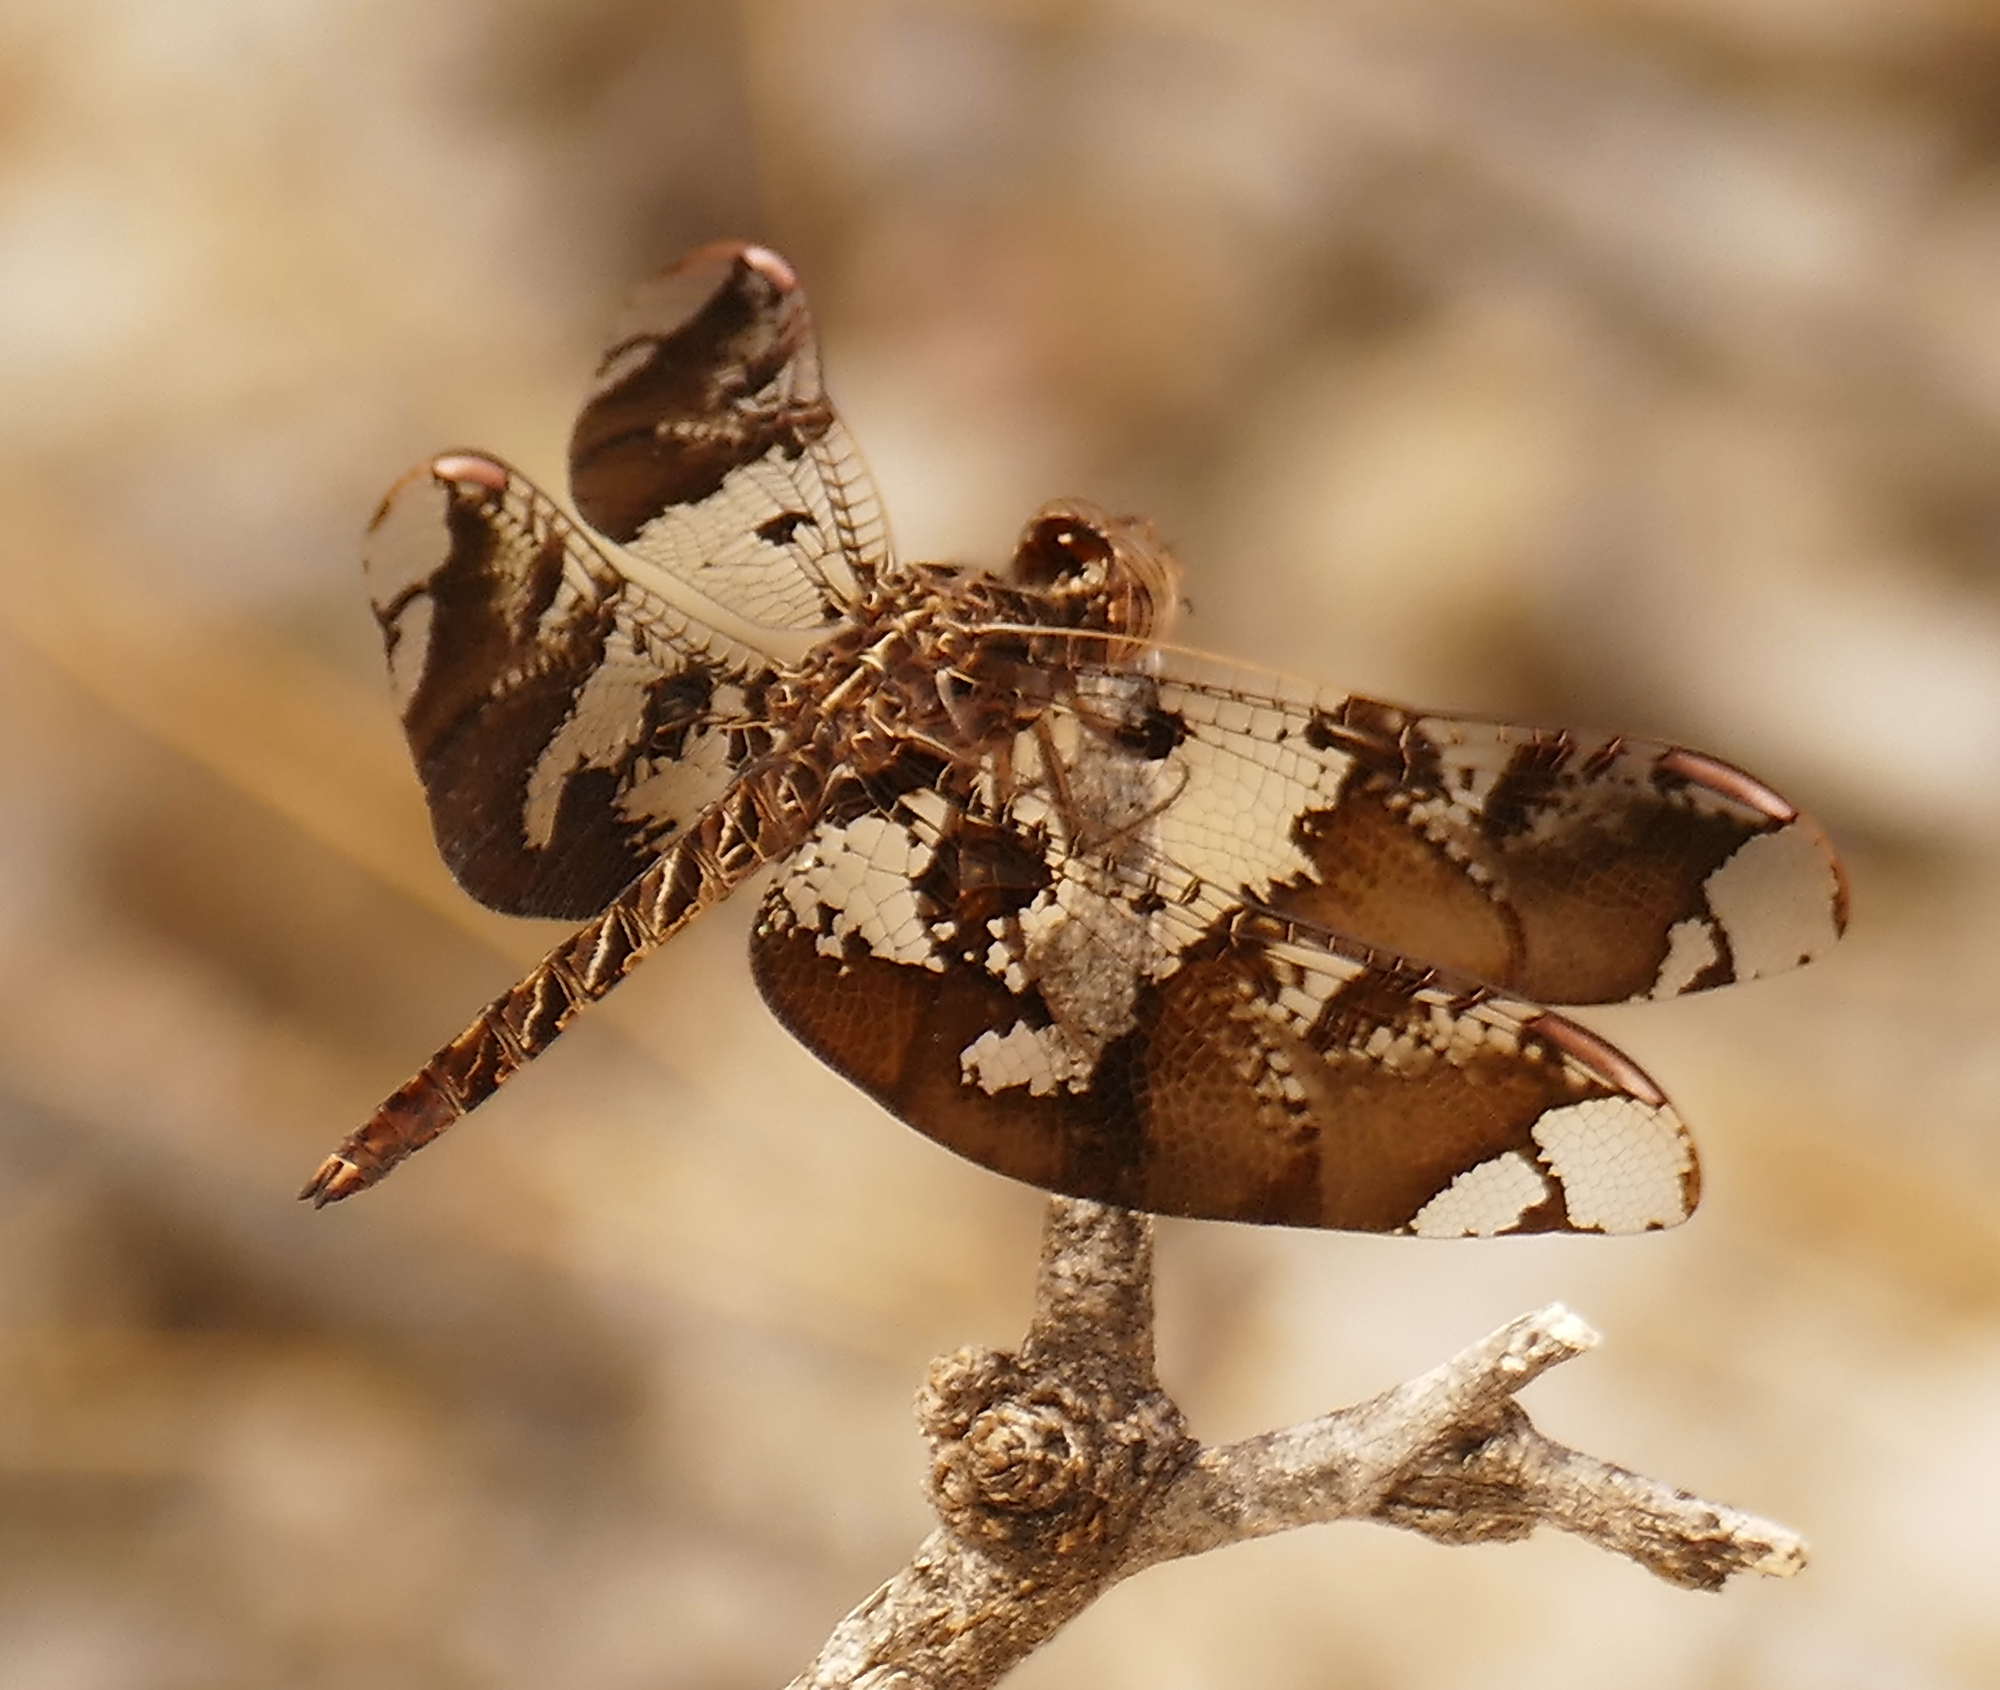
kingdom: Animalia
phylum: Arthropoda
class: Insecta
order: Odonata
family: Libellulidae
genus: Pseudoleon
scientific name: Pseudoleon superbus
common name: Filigree skimmer
